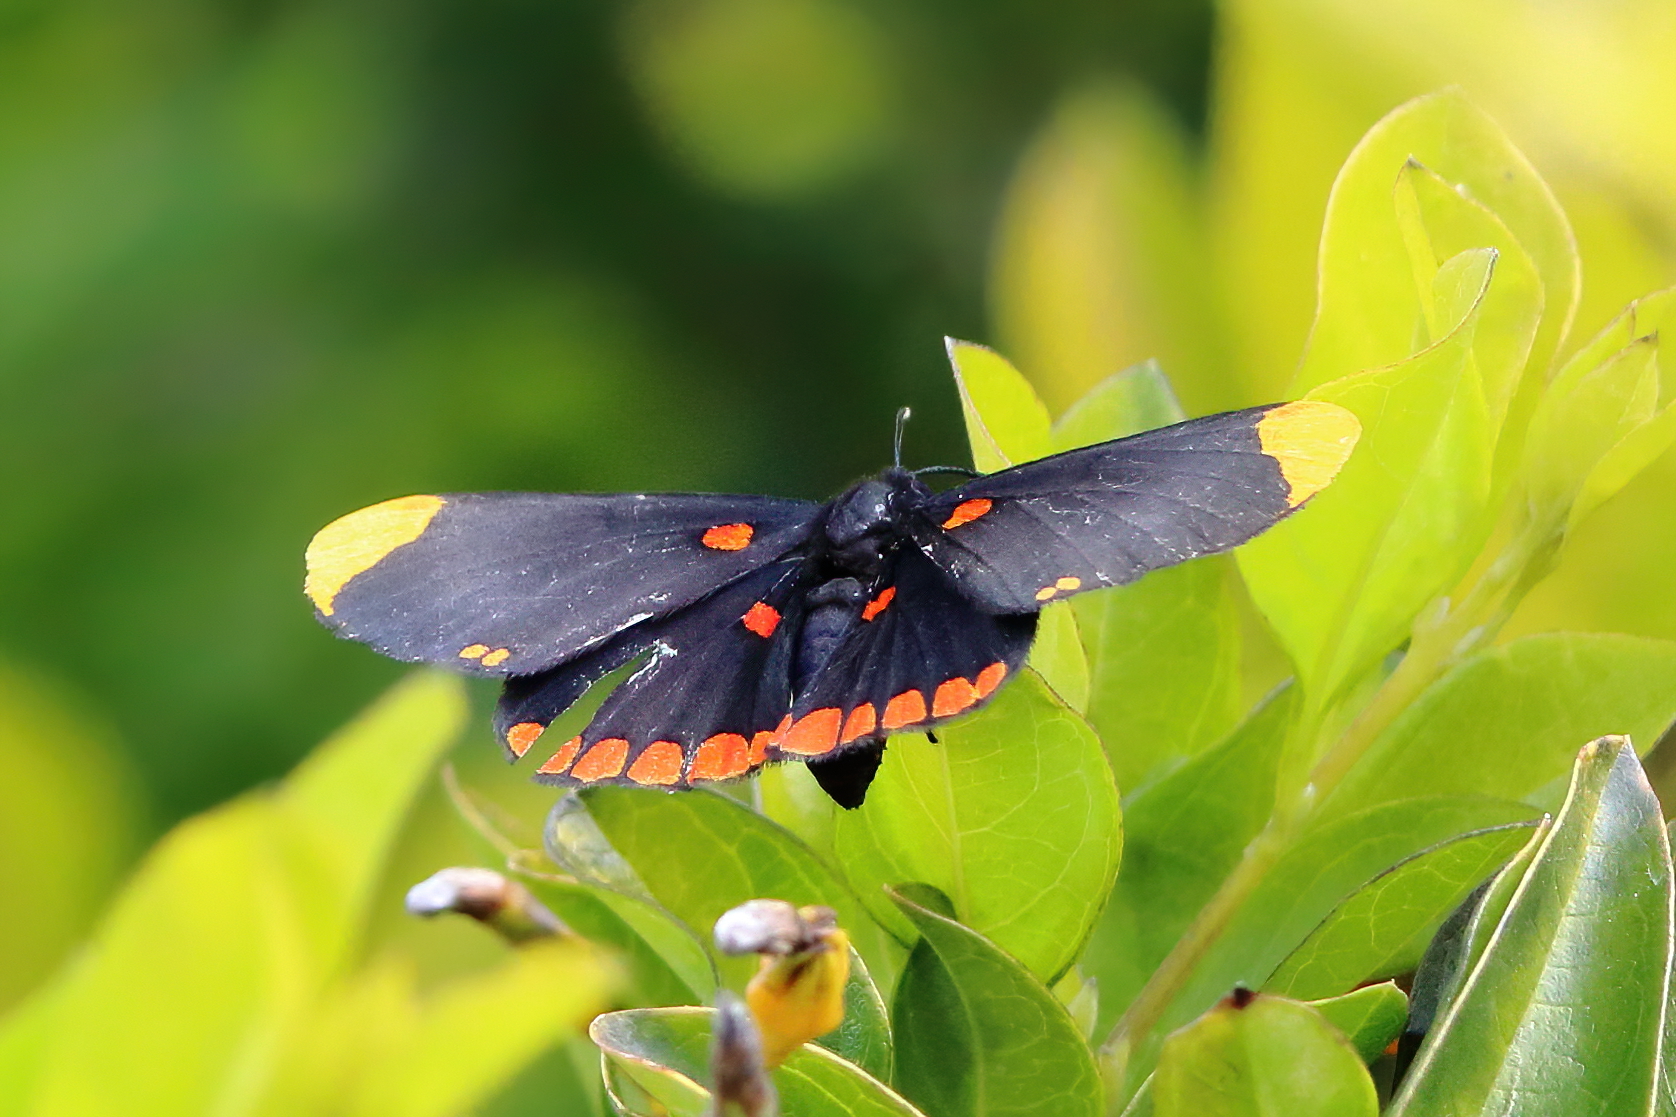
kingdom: Animalia
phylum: Arthropoda
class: Insecta
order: Lepidoptera
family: Lycaenidae
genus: Melanis
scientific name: Melanis pixe
